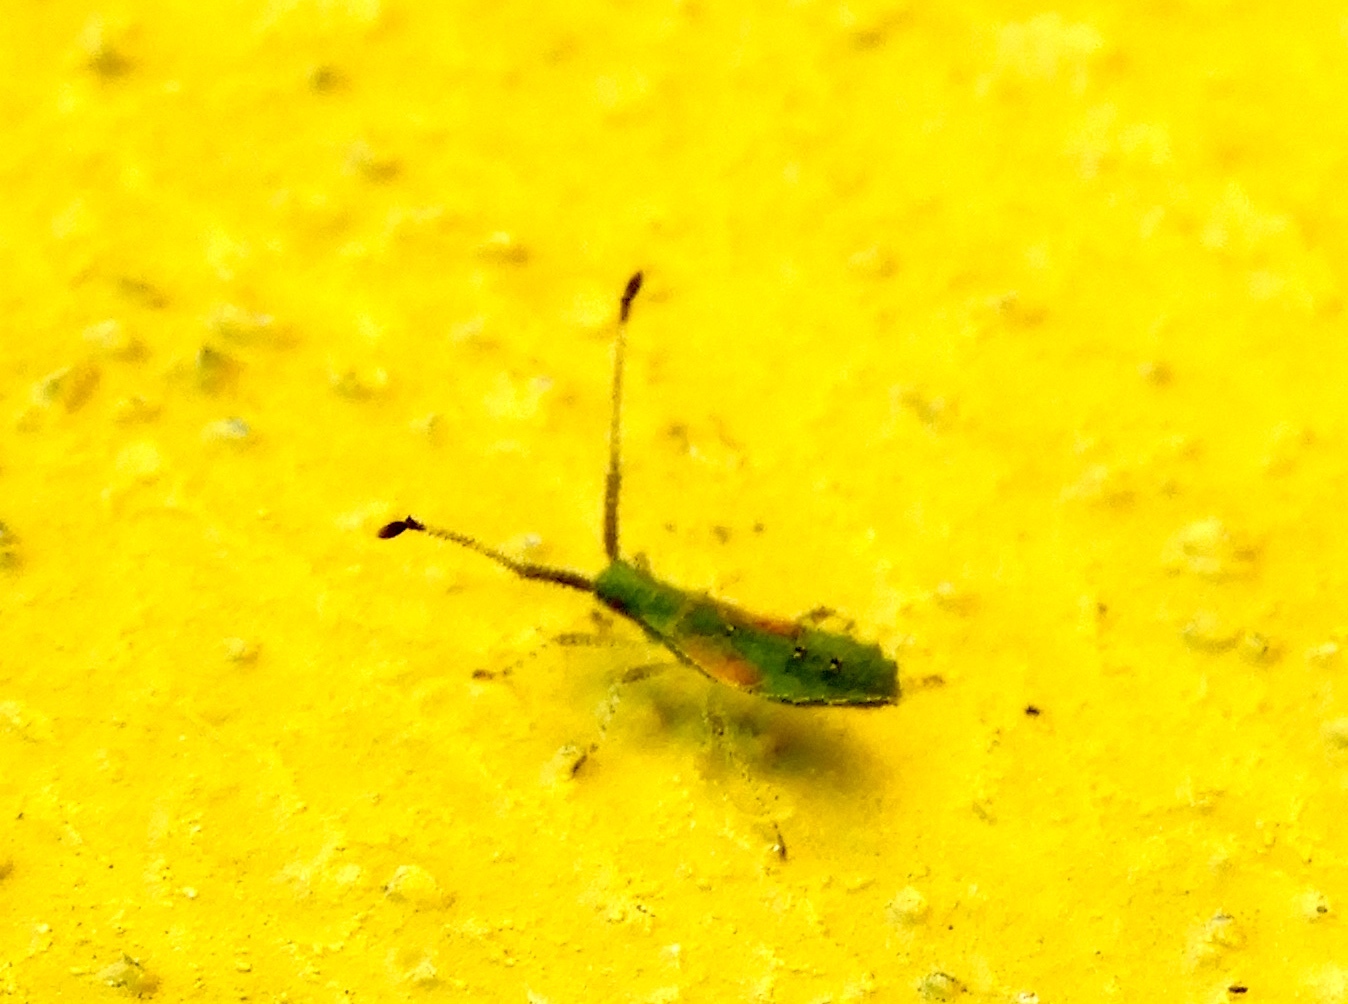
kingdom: Animalia
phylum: Arthropoda
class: Insecta
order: Hemiptera
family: Coreidae
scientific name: Coreidae
